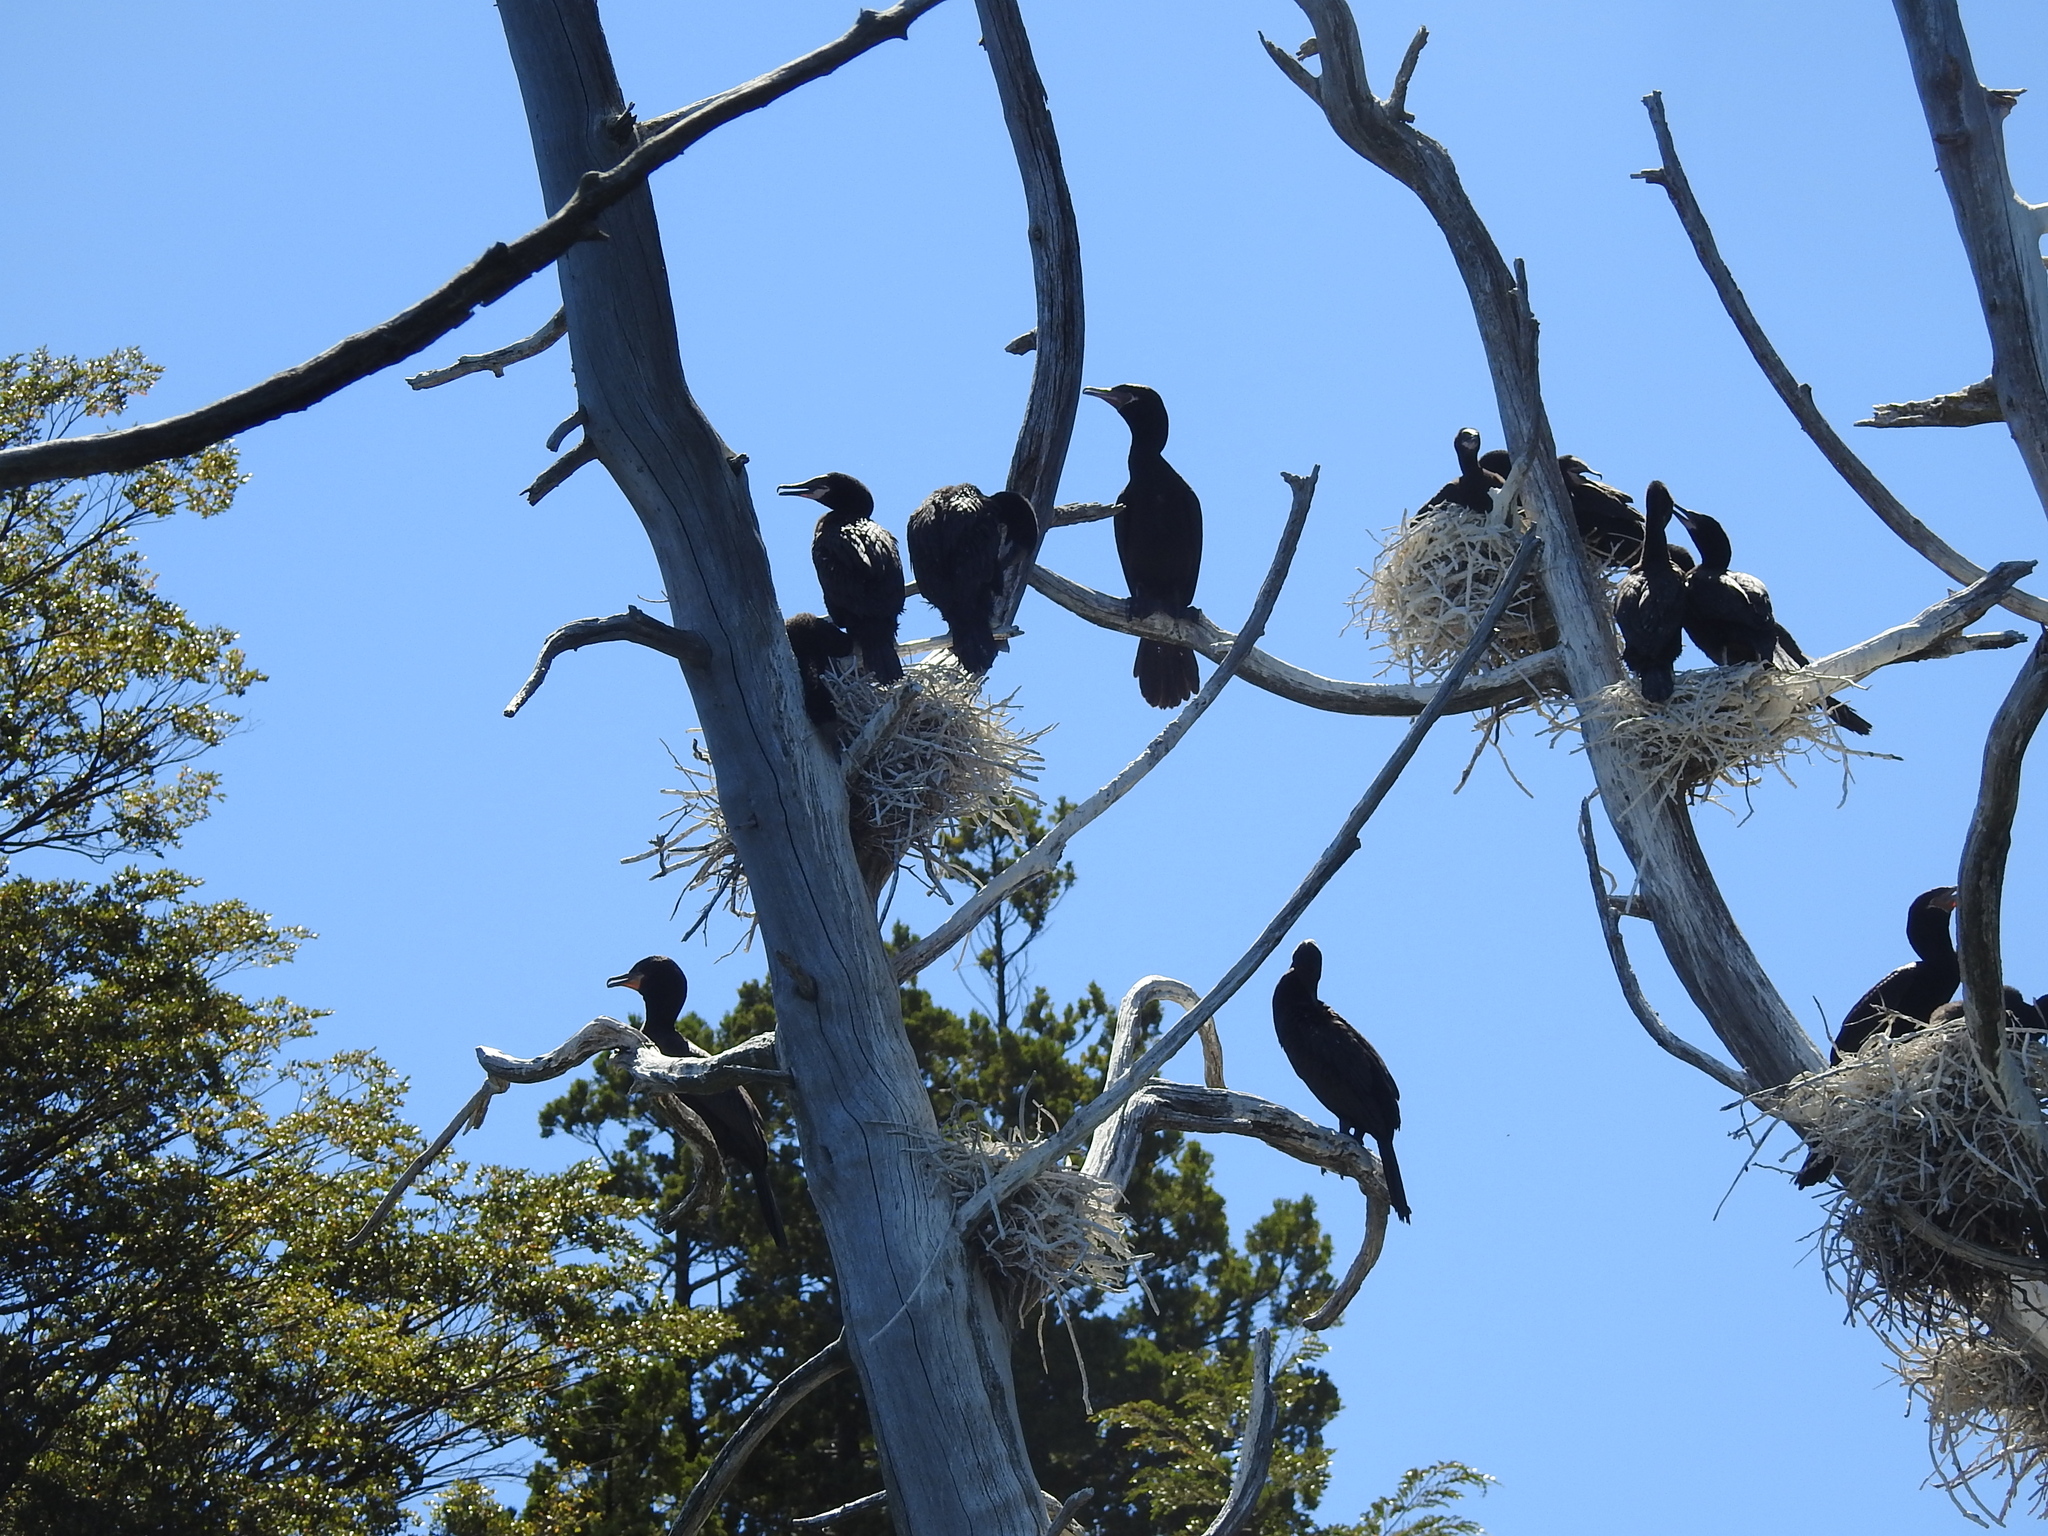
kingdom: Animalia
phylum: Chordata
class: Aves
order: Suliformes
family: Phalacrocoracidae
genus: Phalacrocorax
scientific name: Phalacrocorax brasilianus
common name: Neotropic cormorant
